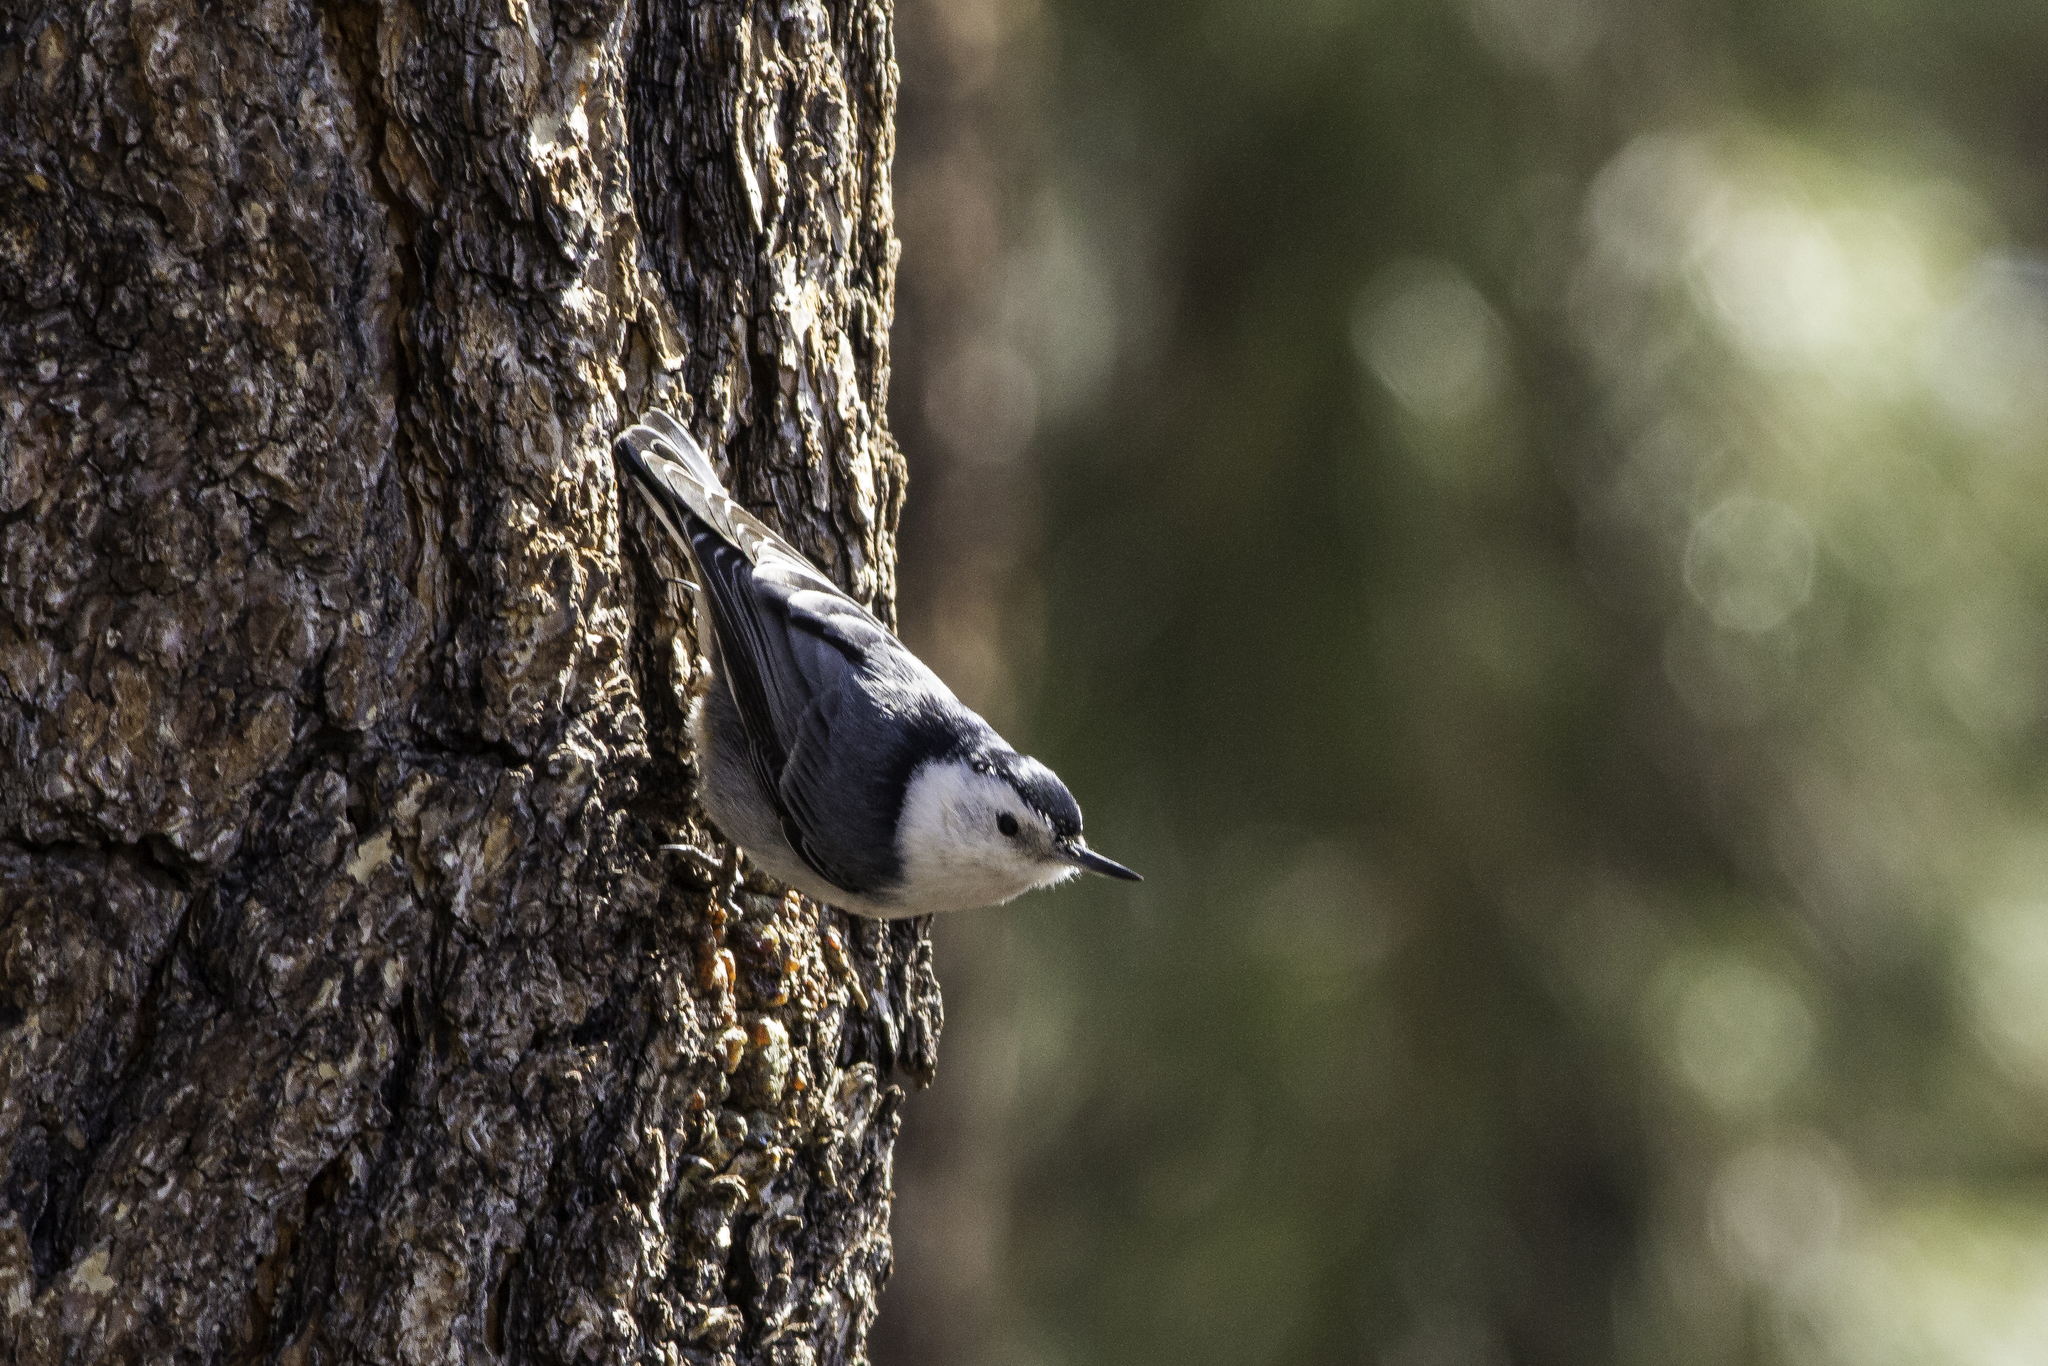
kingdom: Animalia
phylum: Chordata
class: Aves
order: Passeriformes
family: Sittidae
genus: Sitta
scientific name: Sitta carolinensis
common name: White-breasted nuthatch
